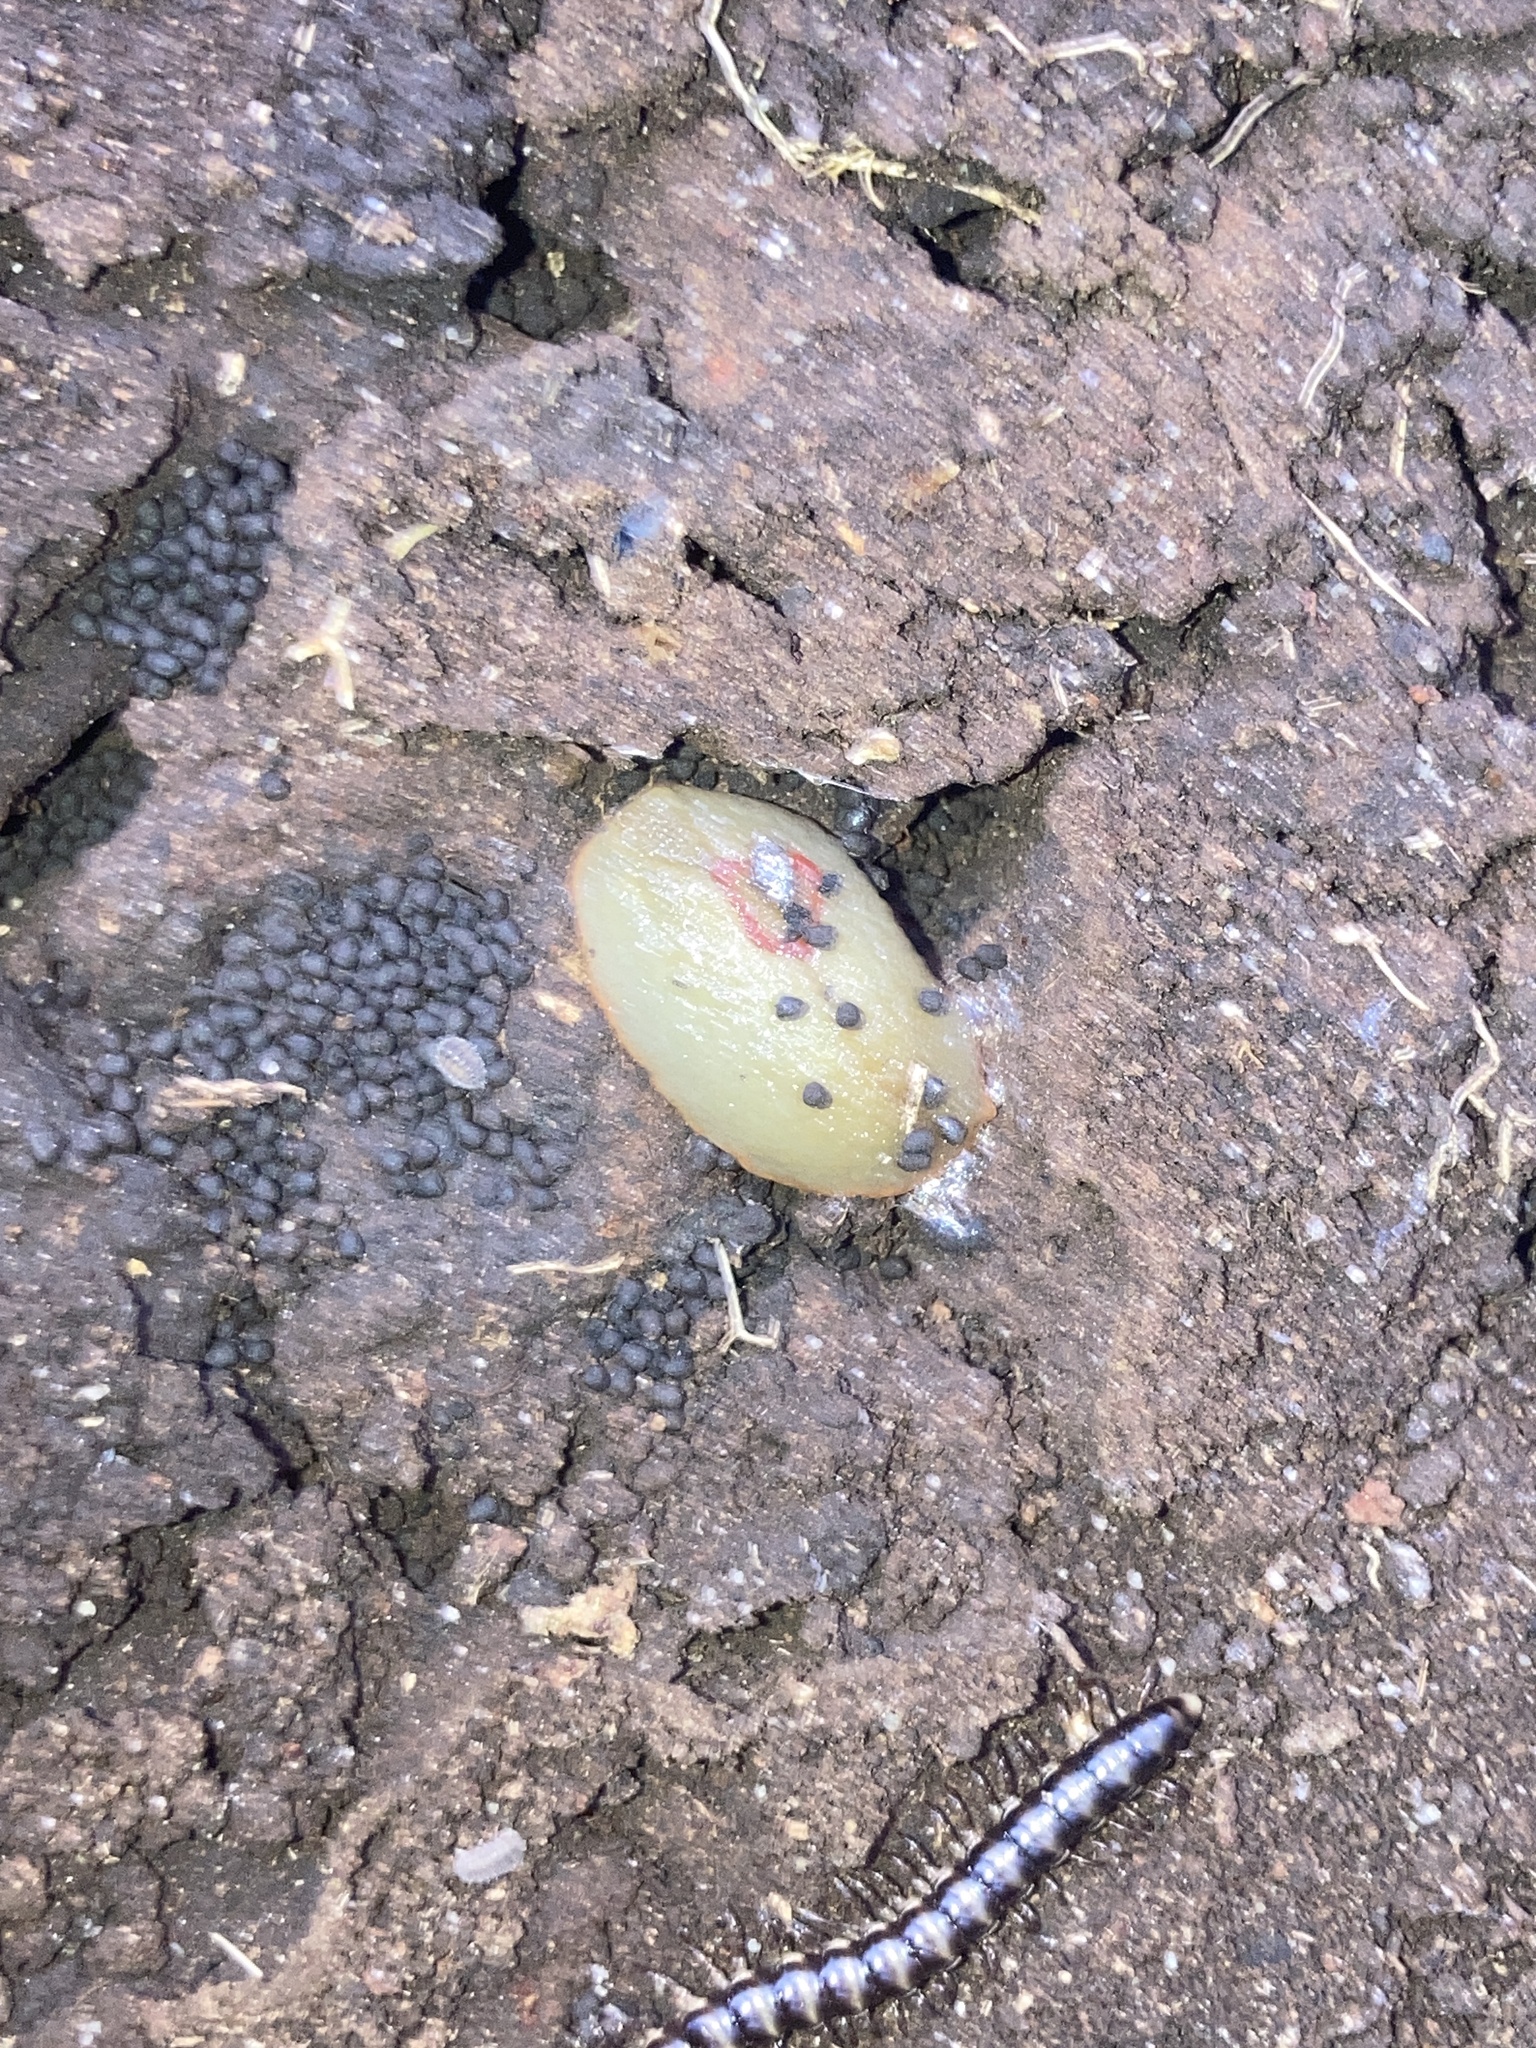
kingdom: Animalia
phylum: Mollusca
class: Gastropoda
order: Stylommatophora
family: Athoracophoridae
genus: Triboniophorus
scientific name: Triboniophorus graeffei
